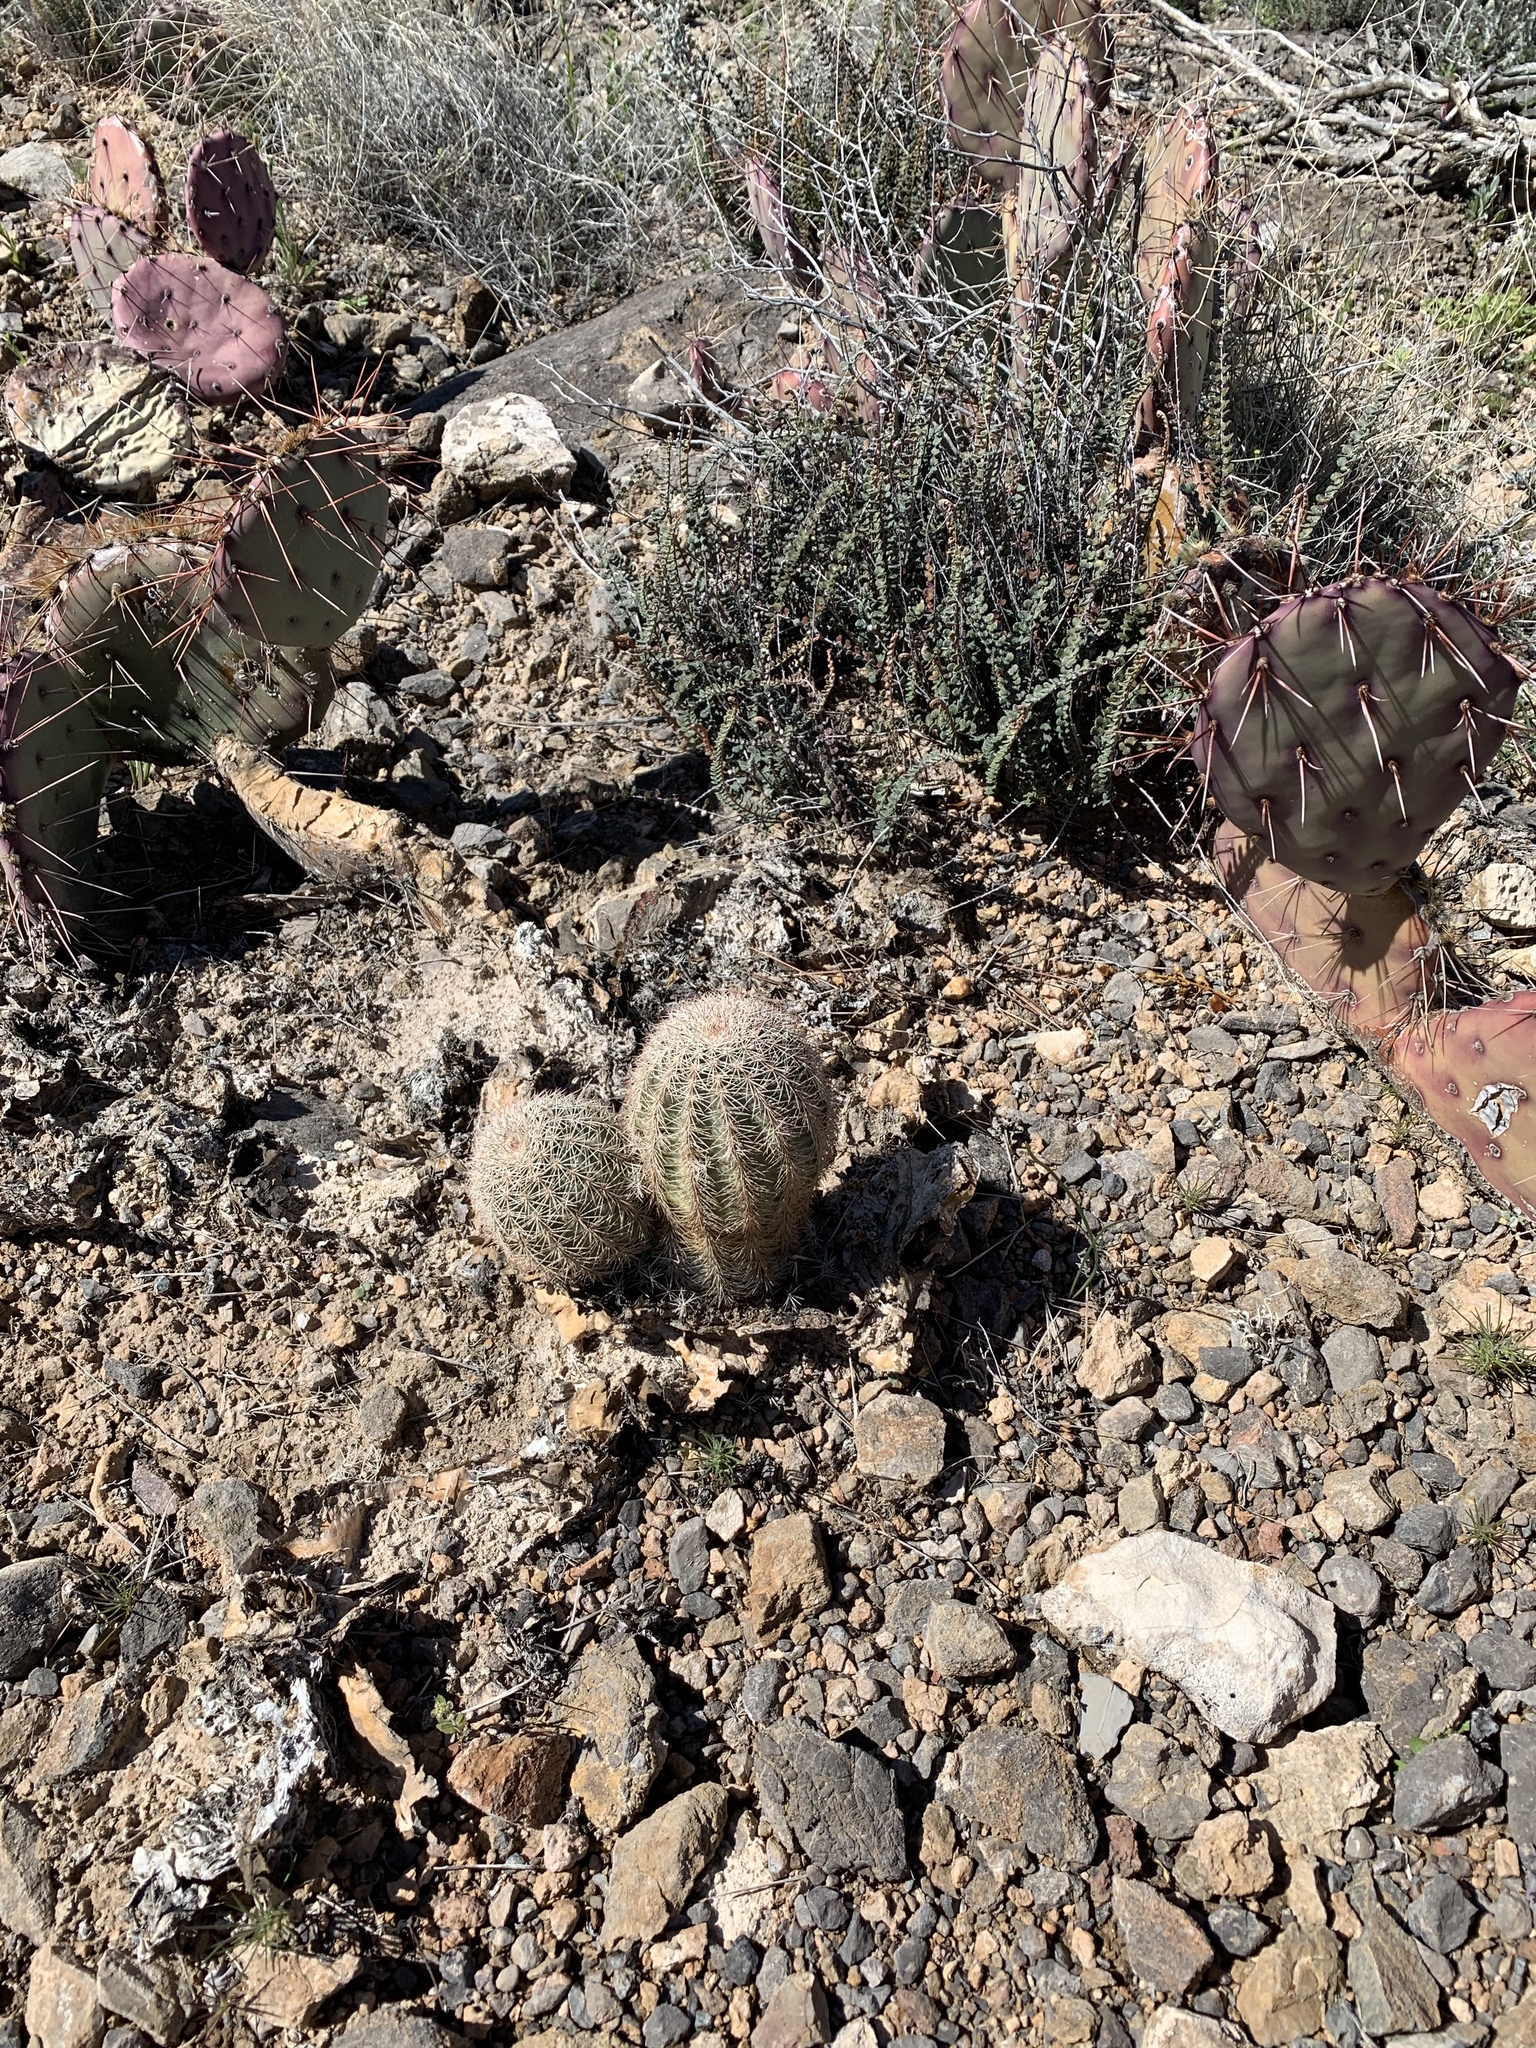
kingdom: Plantae
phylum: Tracheophyta
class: Magnoliopsida
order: Caryophyllales
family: Cactaceae
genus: Echinocereus
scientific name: Echinocereus dasyacanthus
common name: Spiny hedgehog cactus
